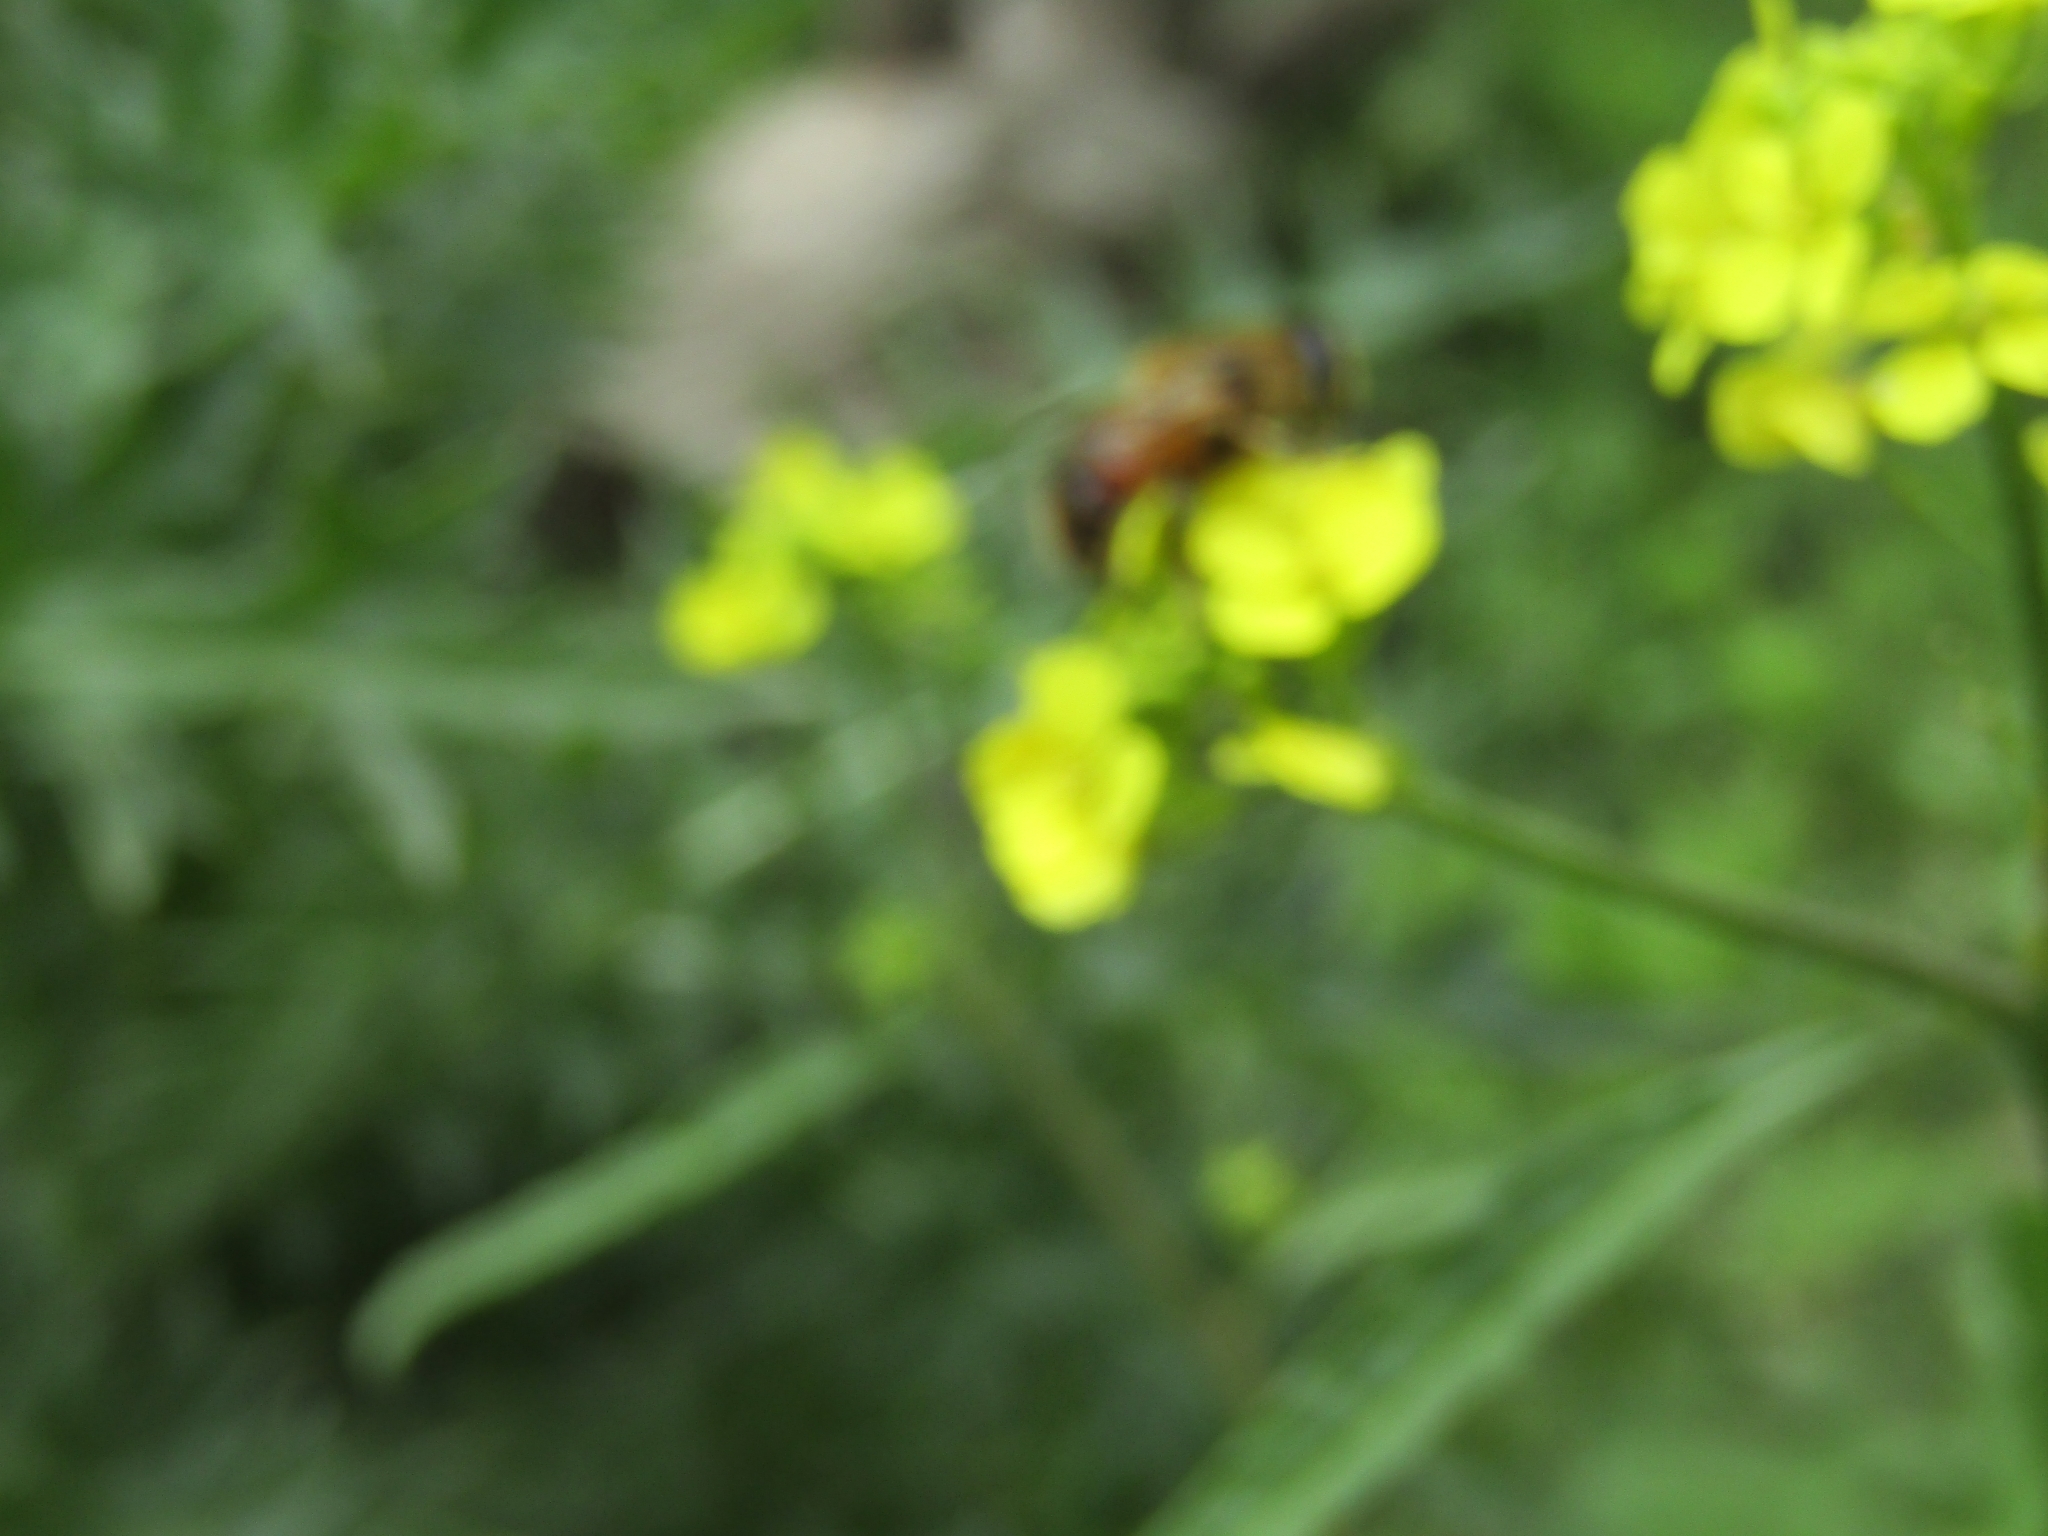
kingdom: Animalia
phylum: Arthropoda
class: Insecta
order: Diptera
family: Syrphidae
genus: Eristalis
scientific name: Eristalis tenax
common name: Drone fly
